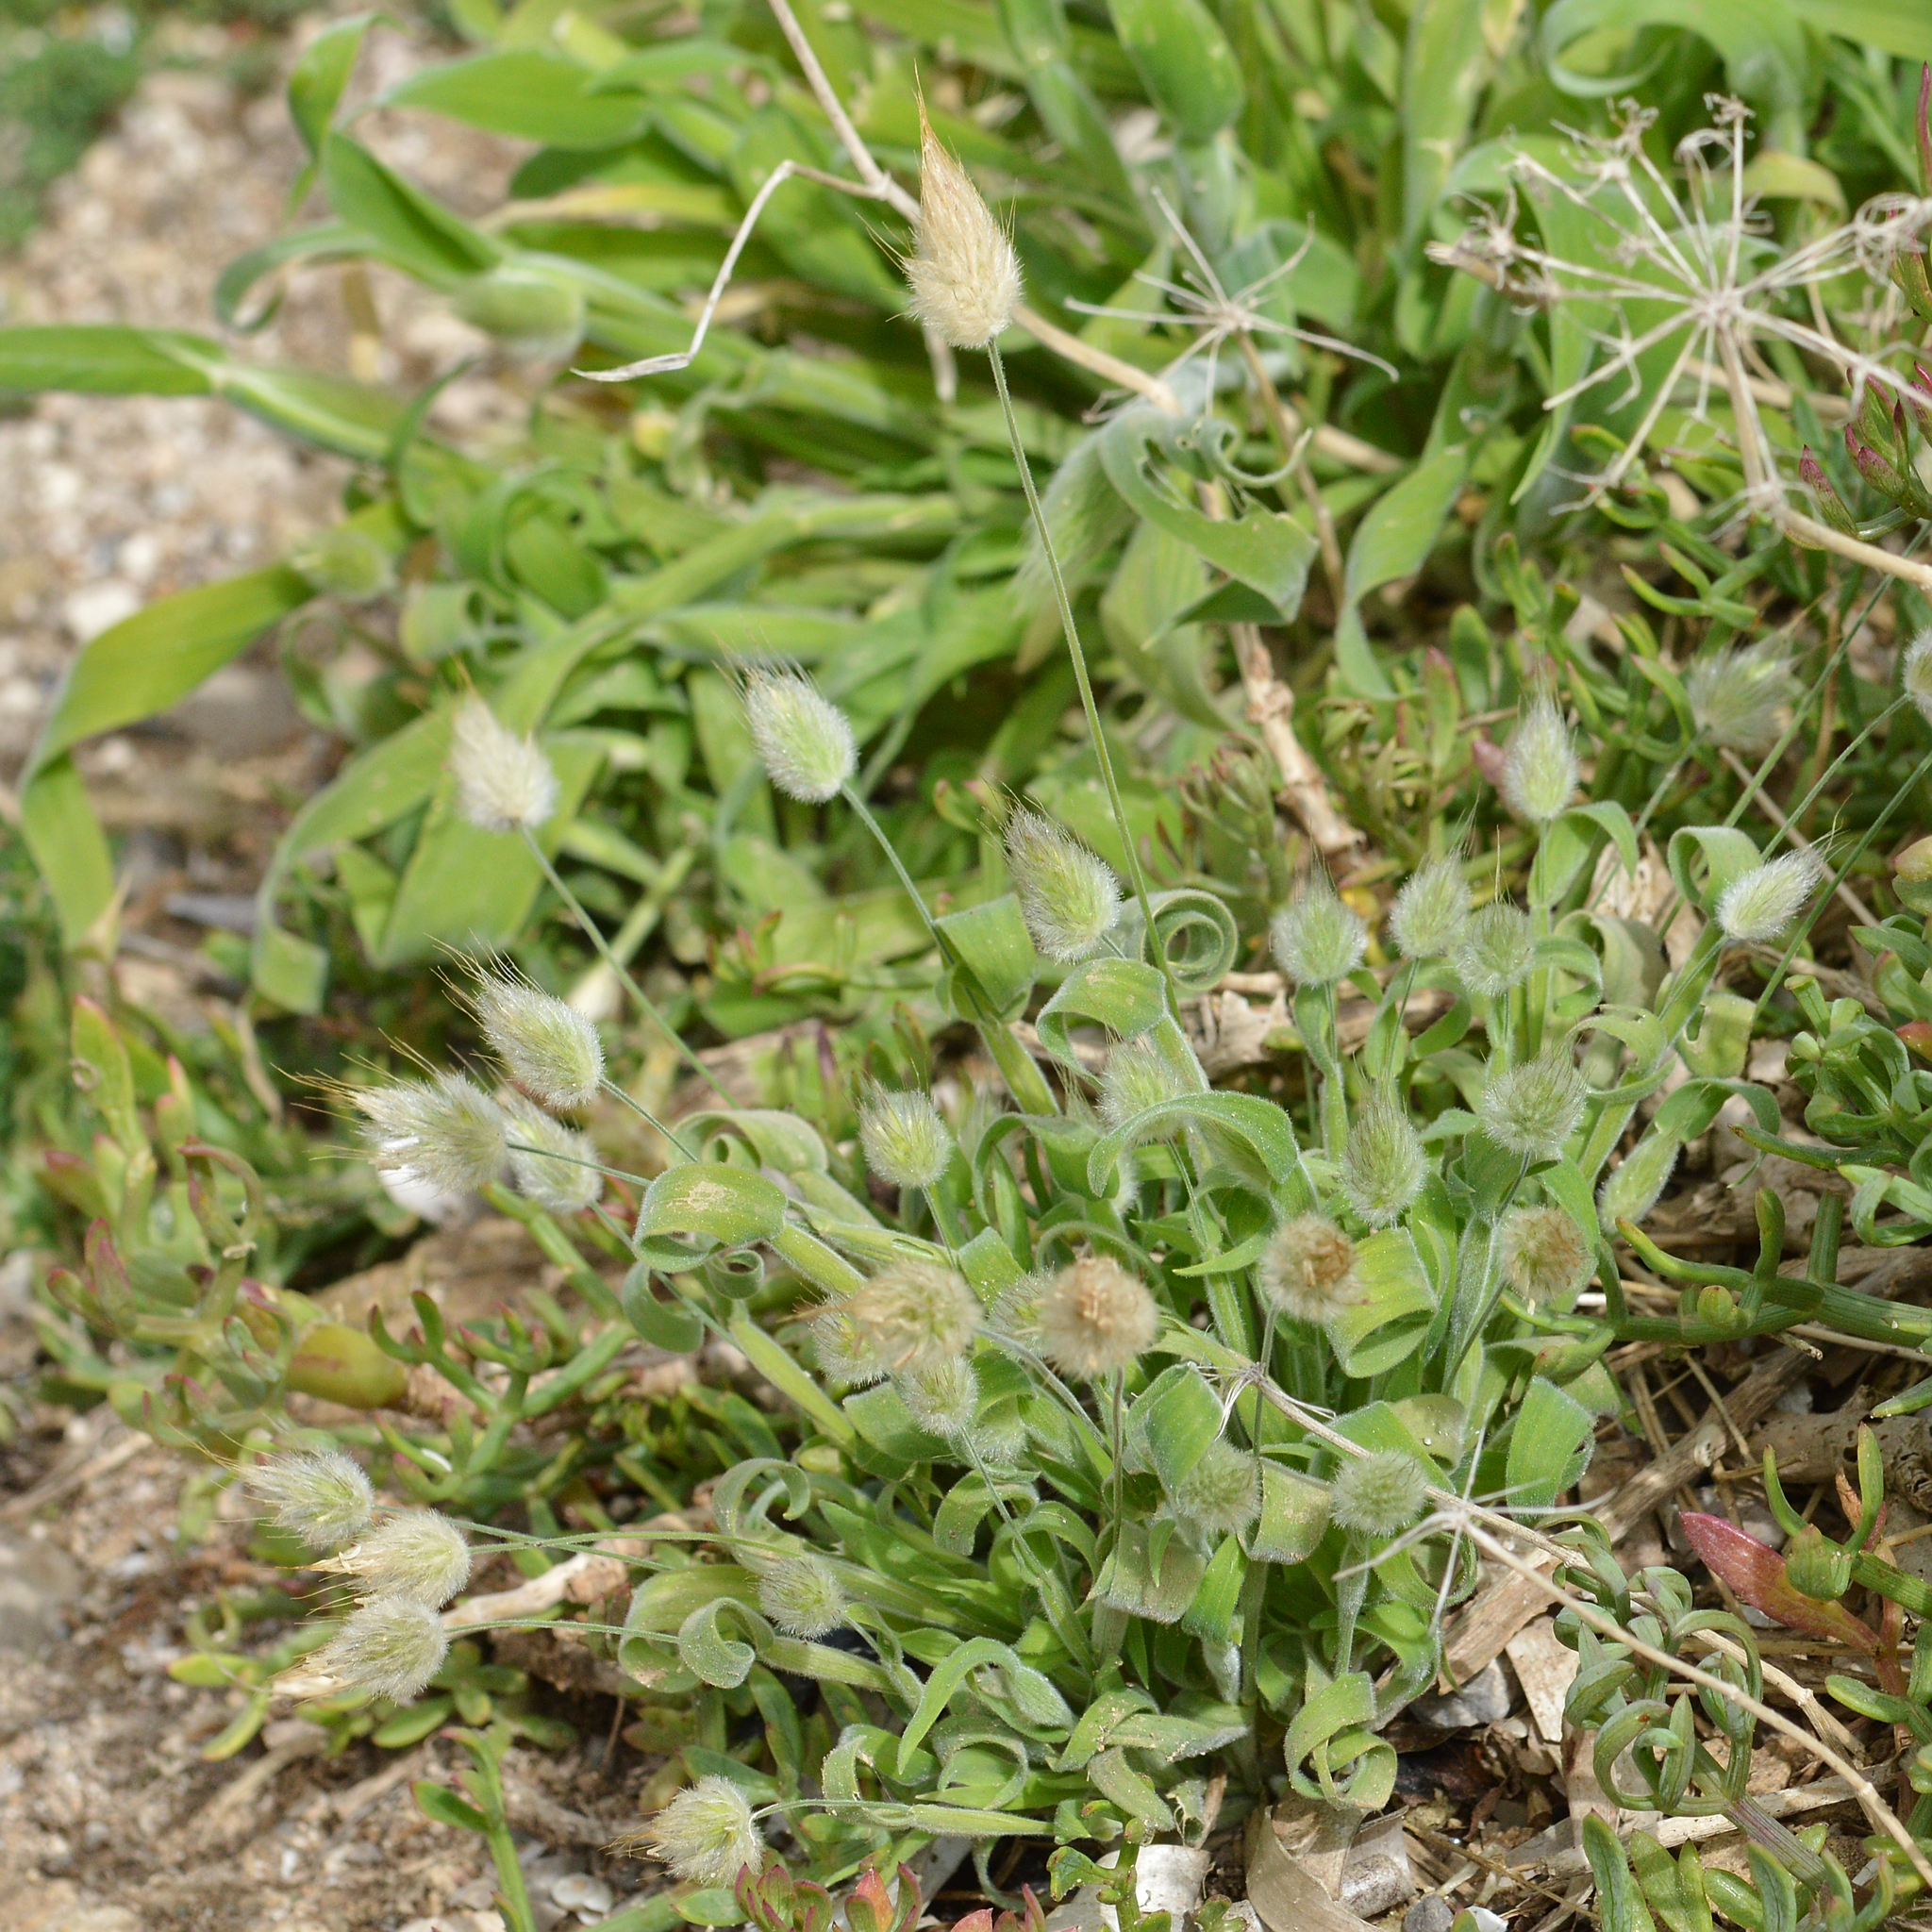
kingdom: Plantae
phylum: Tracheophyta
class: Liliopsida
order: Poales
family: Poaceae
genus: Lagurus
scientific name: Lagurus ovatus
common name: Hare's-tail
